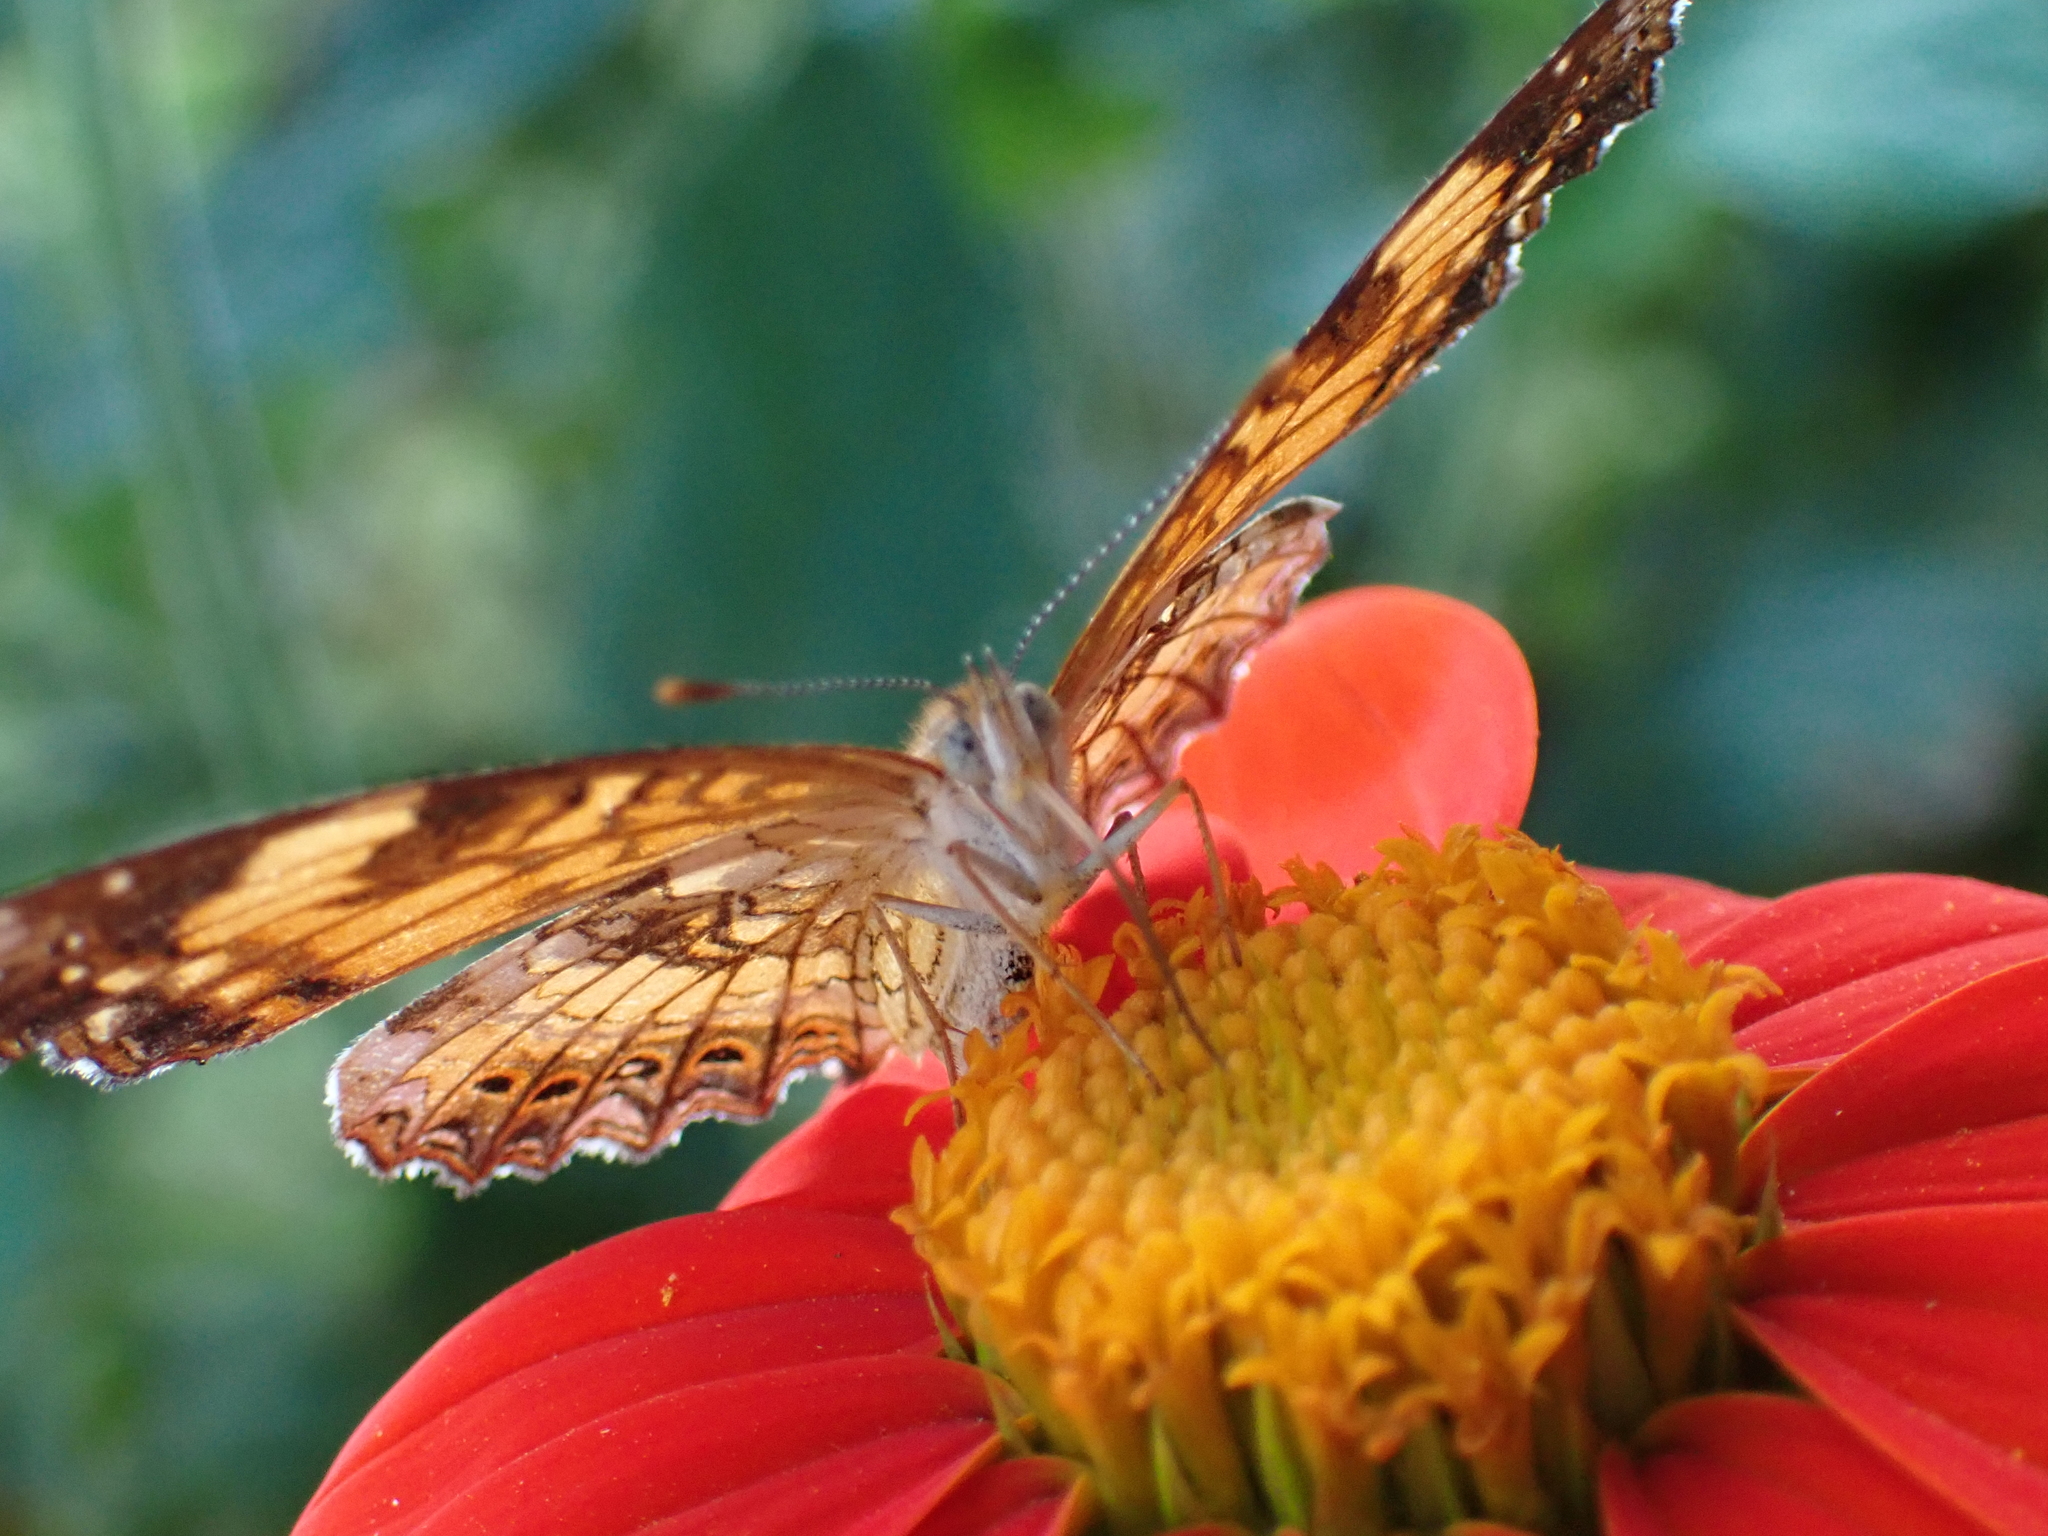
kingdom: Animalia
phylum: Arthropoda
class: Insecta
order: Lepidoptera
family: Nymphalidae
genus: Chlosyne
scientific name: Chlosyne nycteis
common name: Silvery checkerspot
